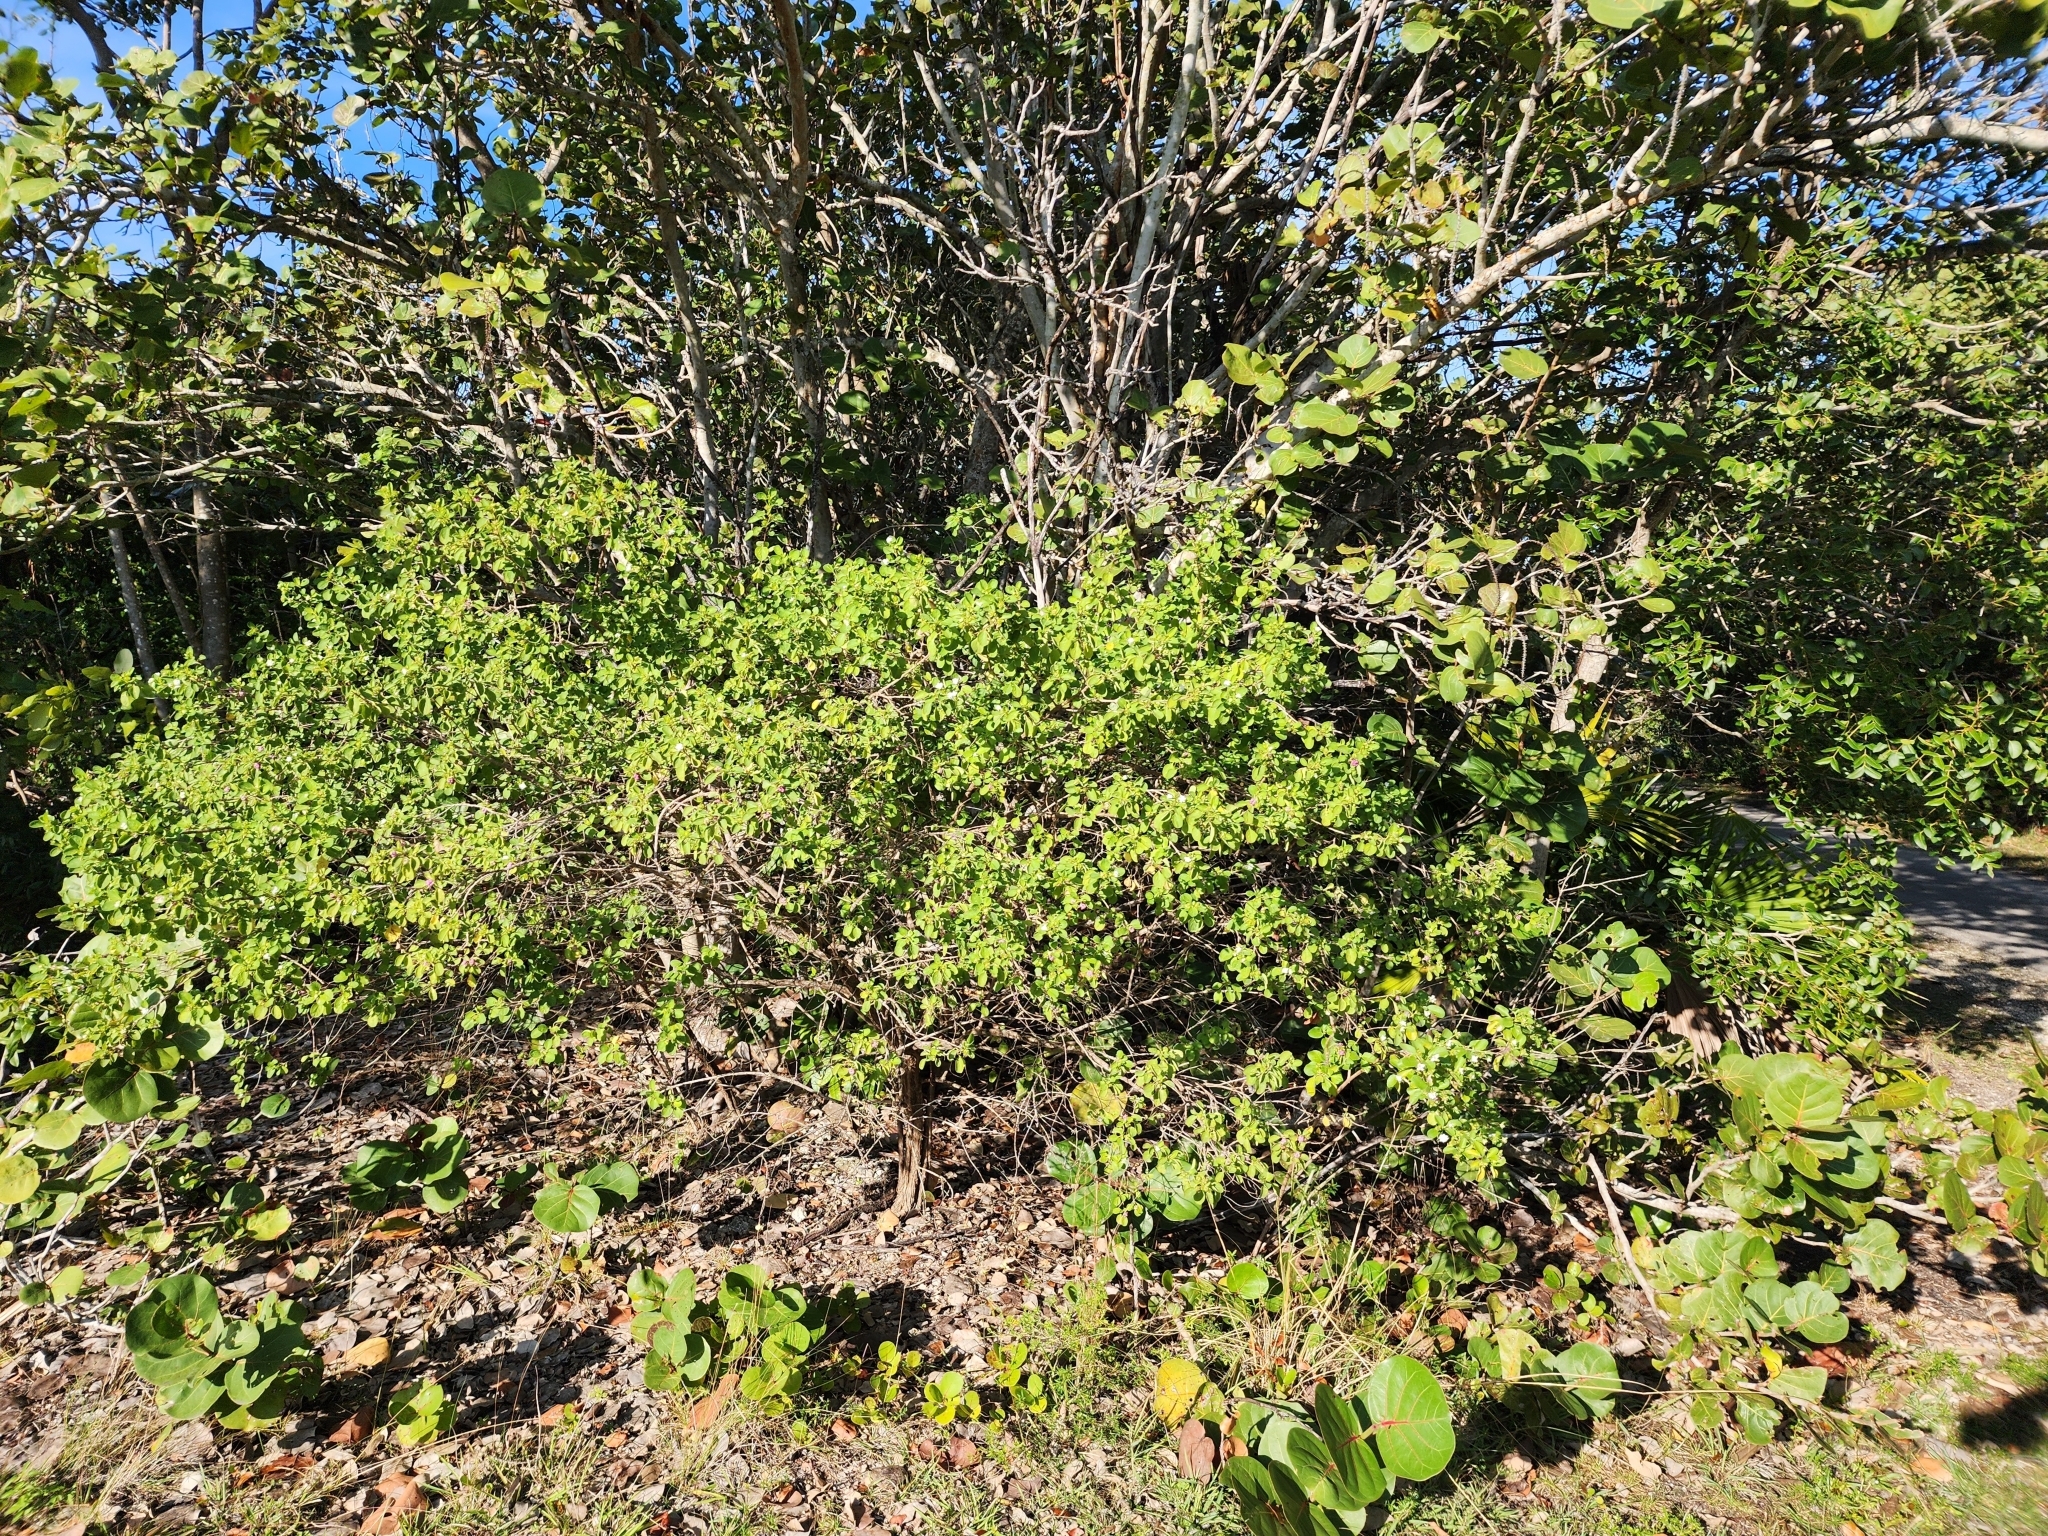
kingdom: Plantae
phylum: Tracheophyta
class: Magnoliopsida
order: Lamiales
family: Verbenaceae
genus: Lantana
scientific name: Lantana involucrata
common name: Black sage
